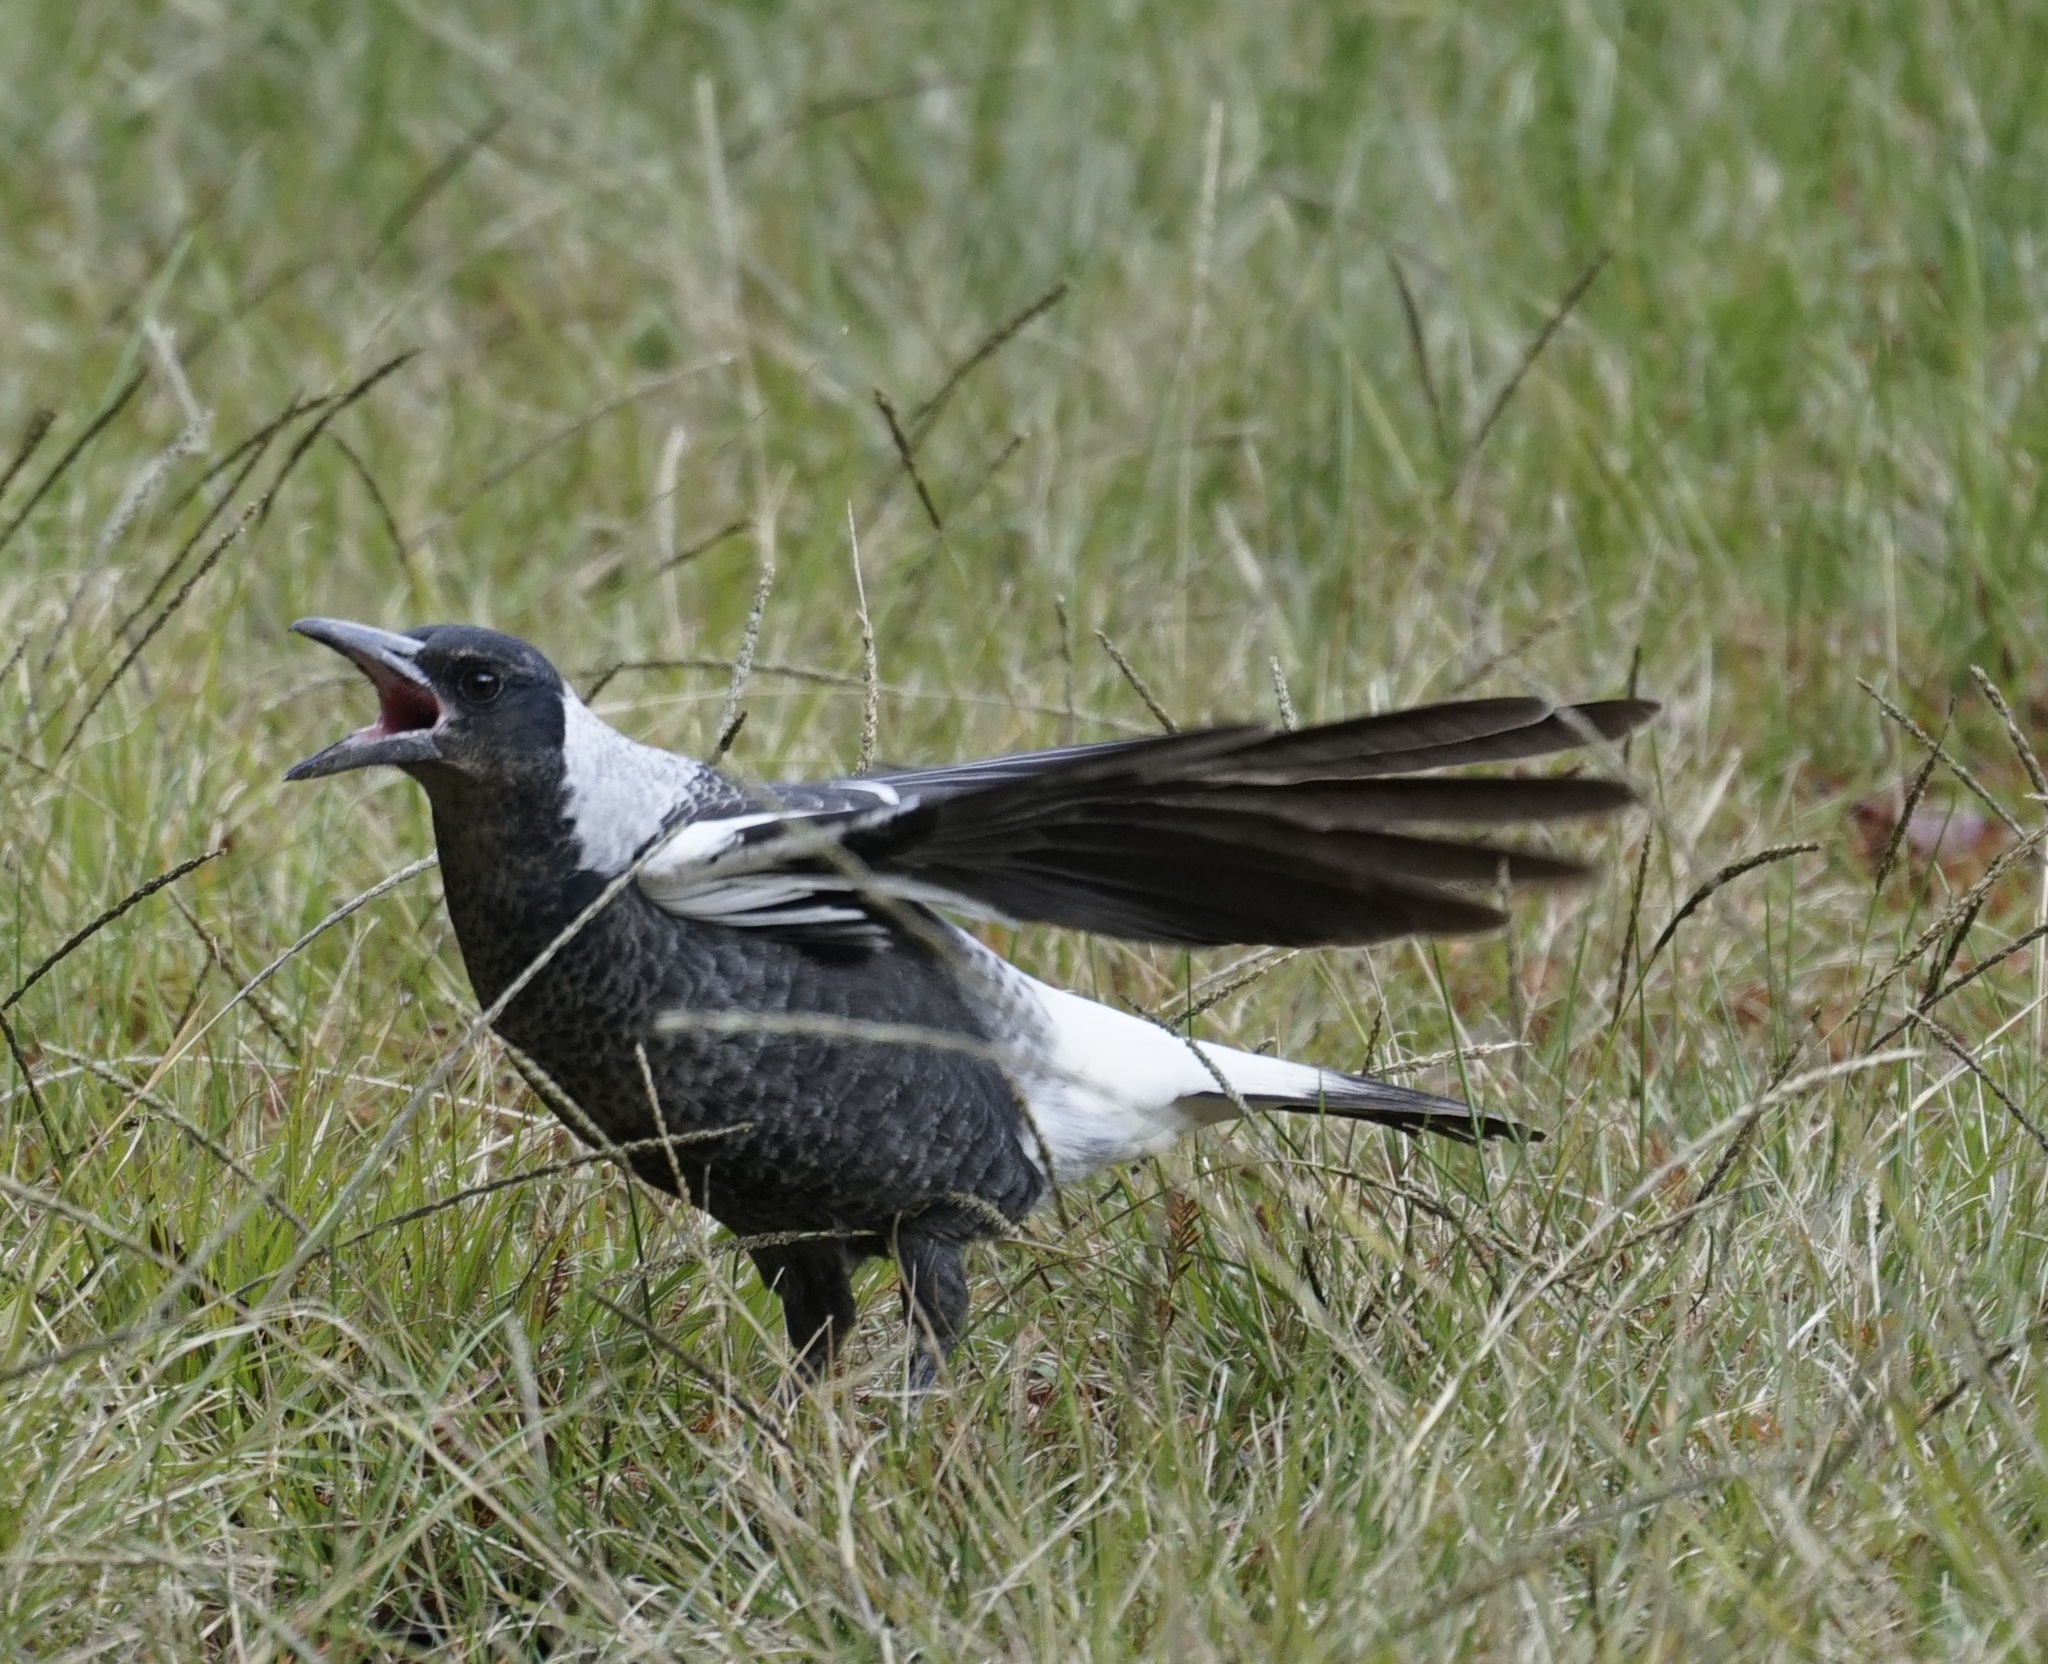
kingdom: Animalia
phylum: Chordata
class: Aves
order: Passeriformes
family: Cracticidae
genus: Gymnorhina
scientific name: Gymnorhina tibicen
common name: Australian magpie
